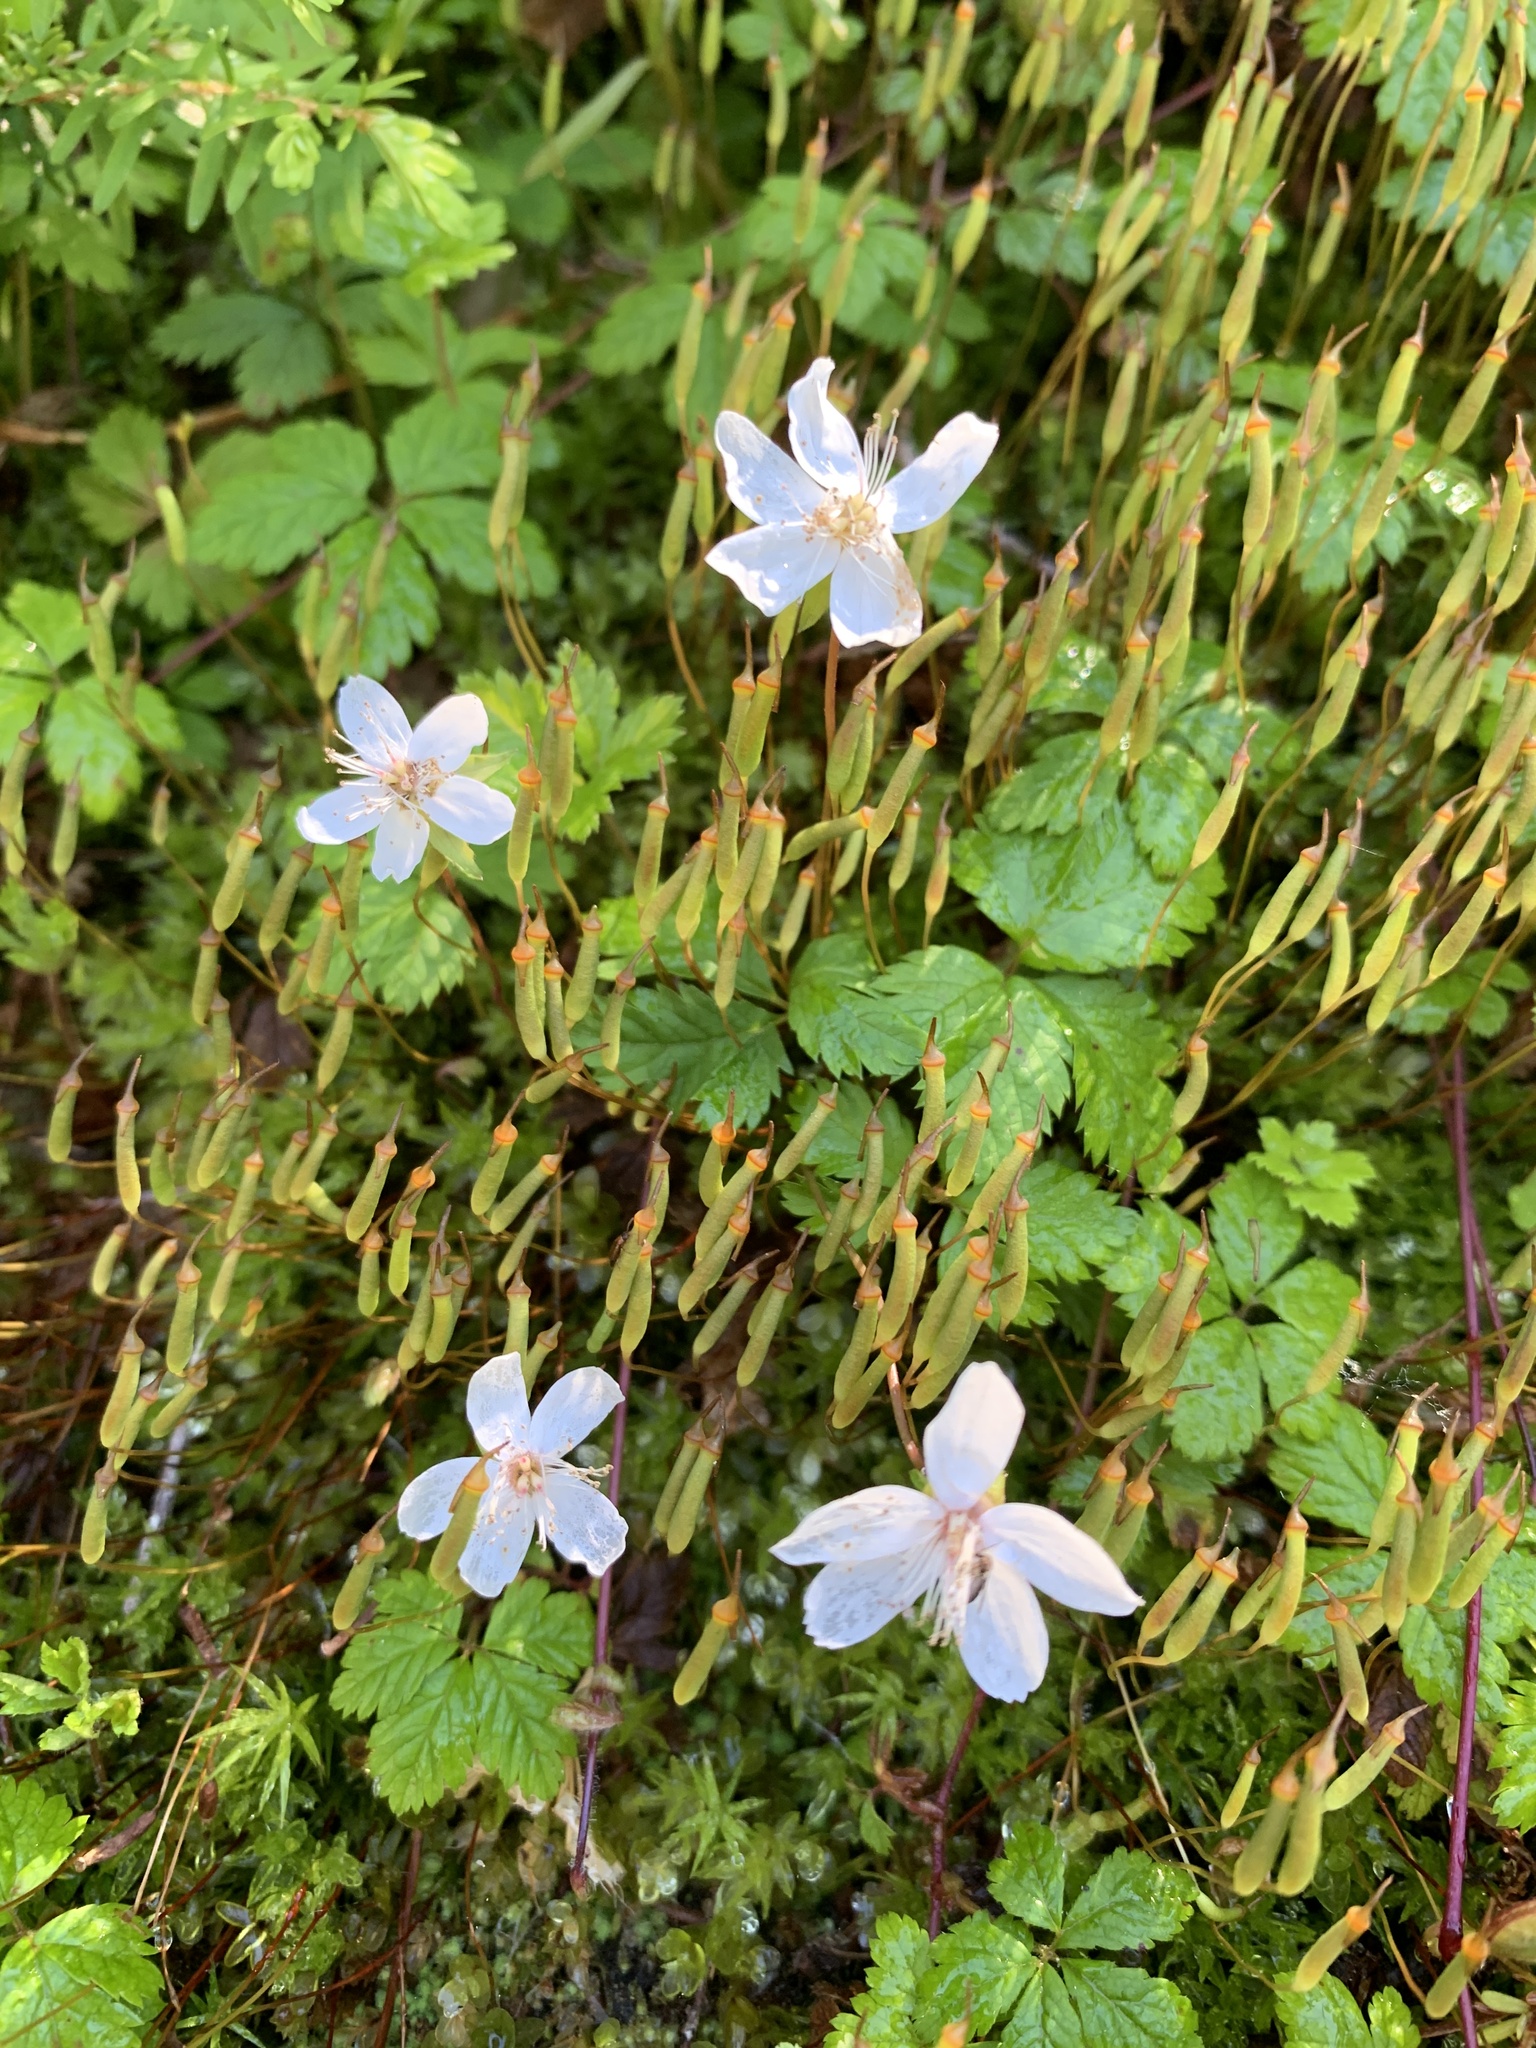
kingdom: Plantae
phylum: Tracheophyta
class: Magnoliopsida
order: Rosales
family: Rosaceae
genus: Rubus
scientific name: Rubus pedatus
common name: Creeping raspberry
